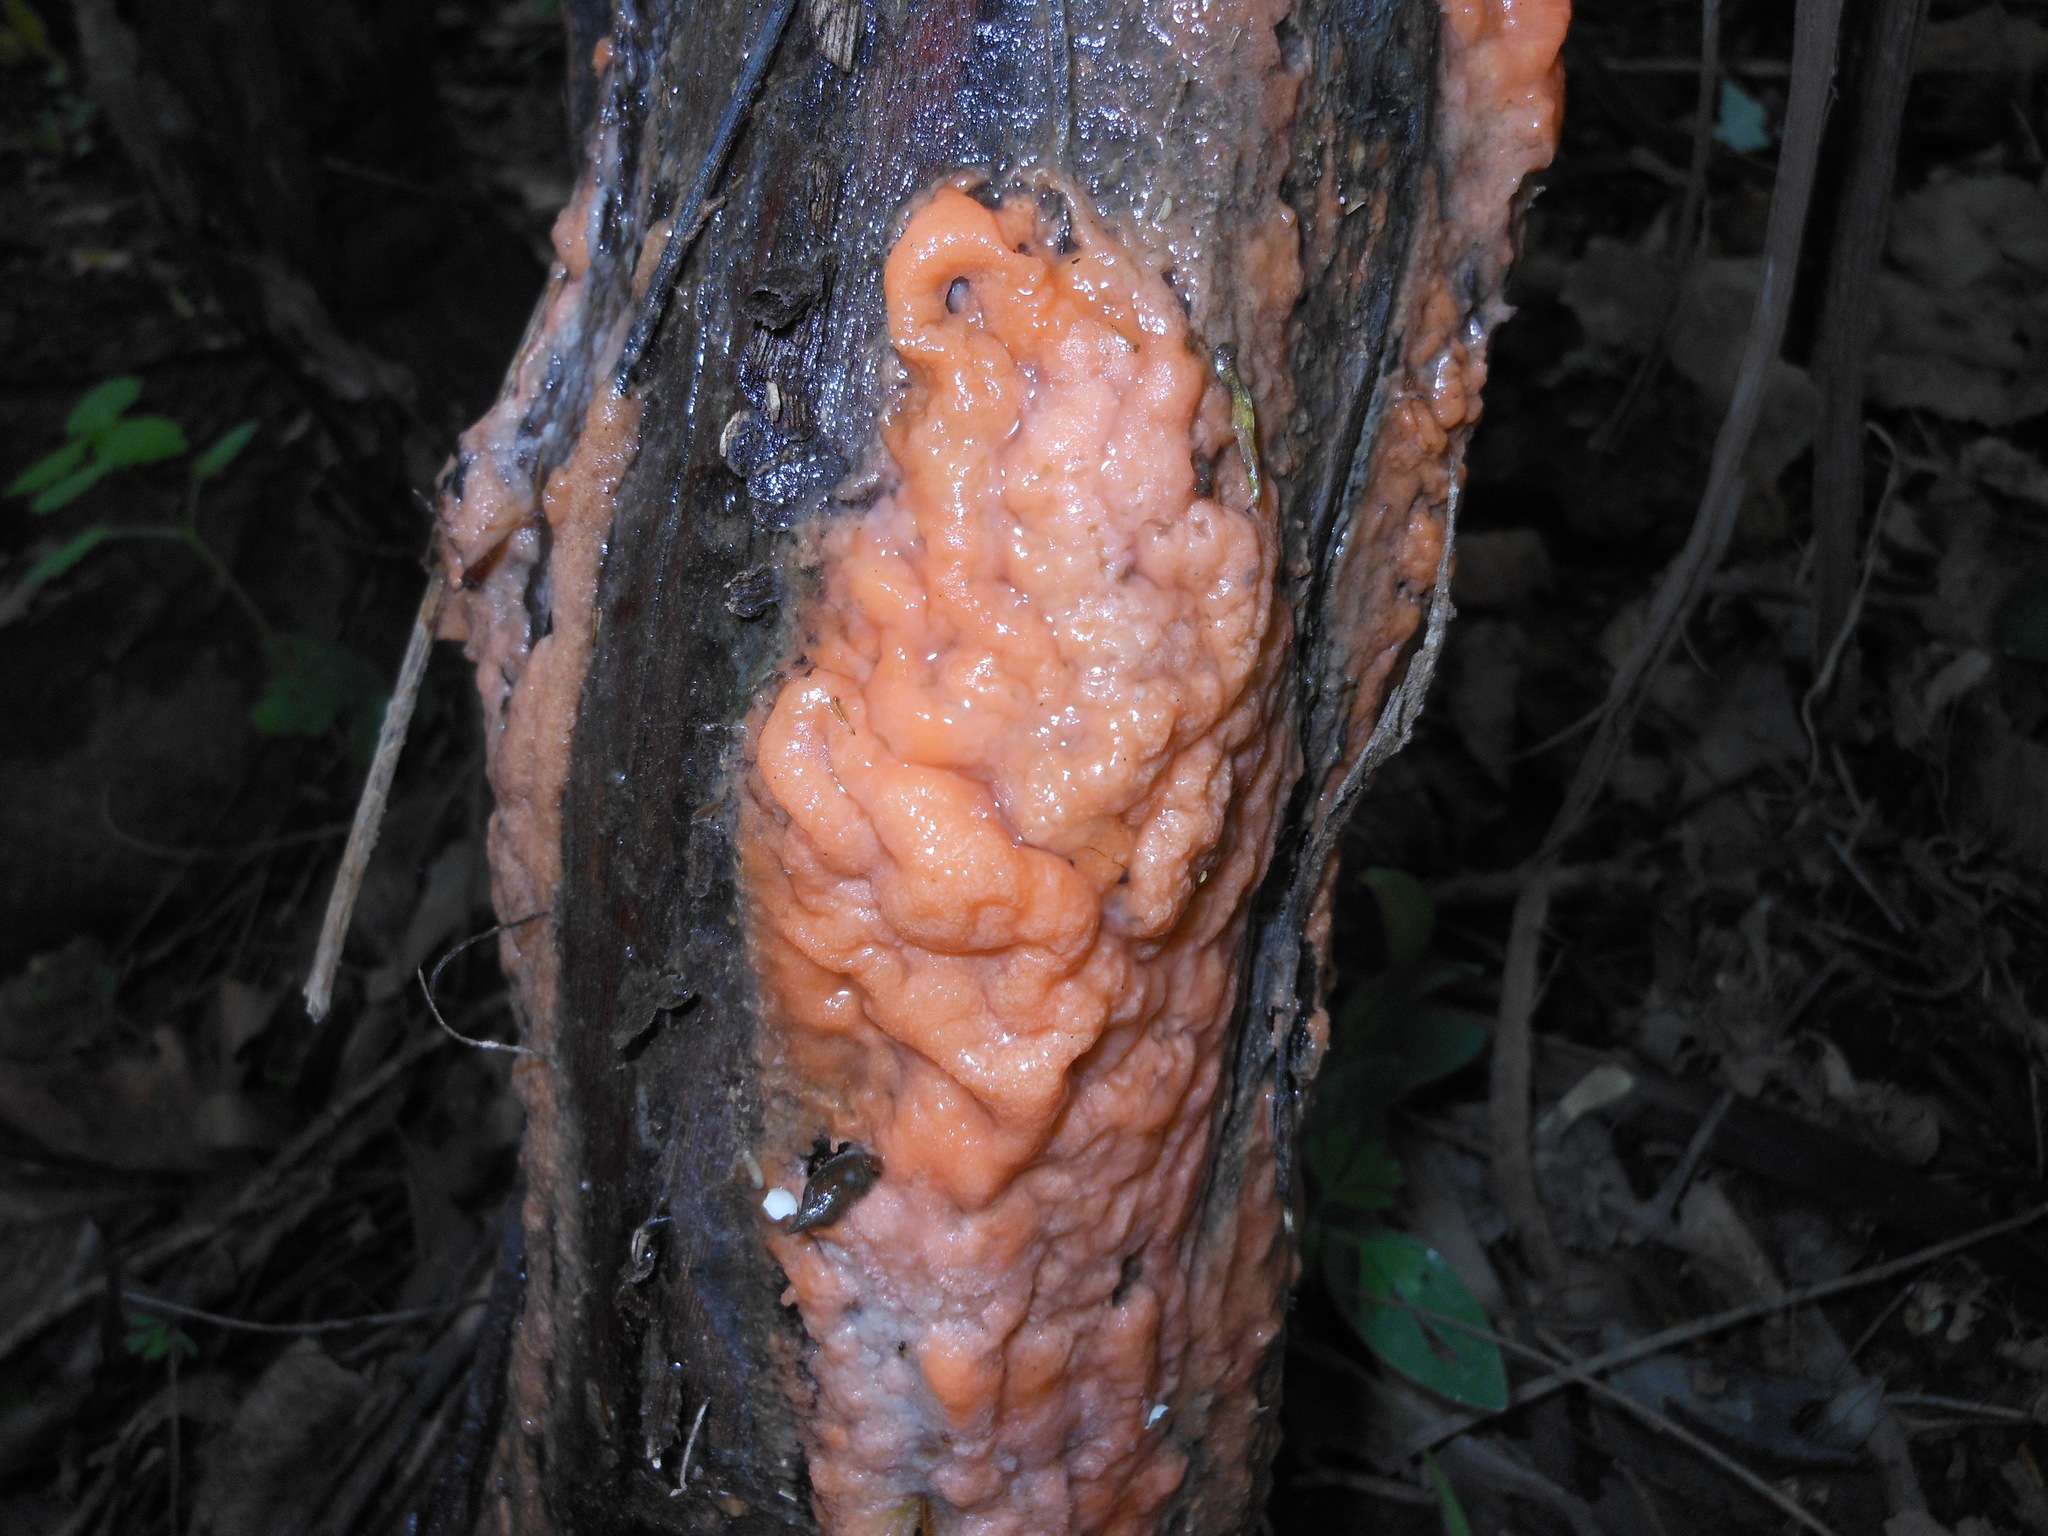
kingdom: Fungi
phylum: Ascomycota
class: Sordariomycetes
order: Hypocreales
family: Nectriaceae
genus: Fusicolla
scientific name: Fusicolla merismoides
